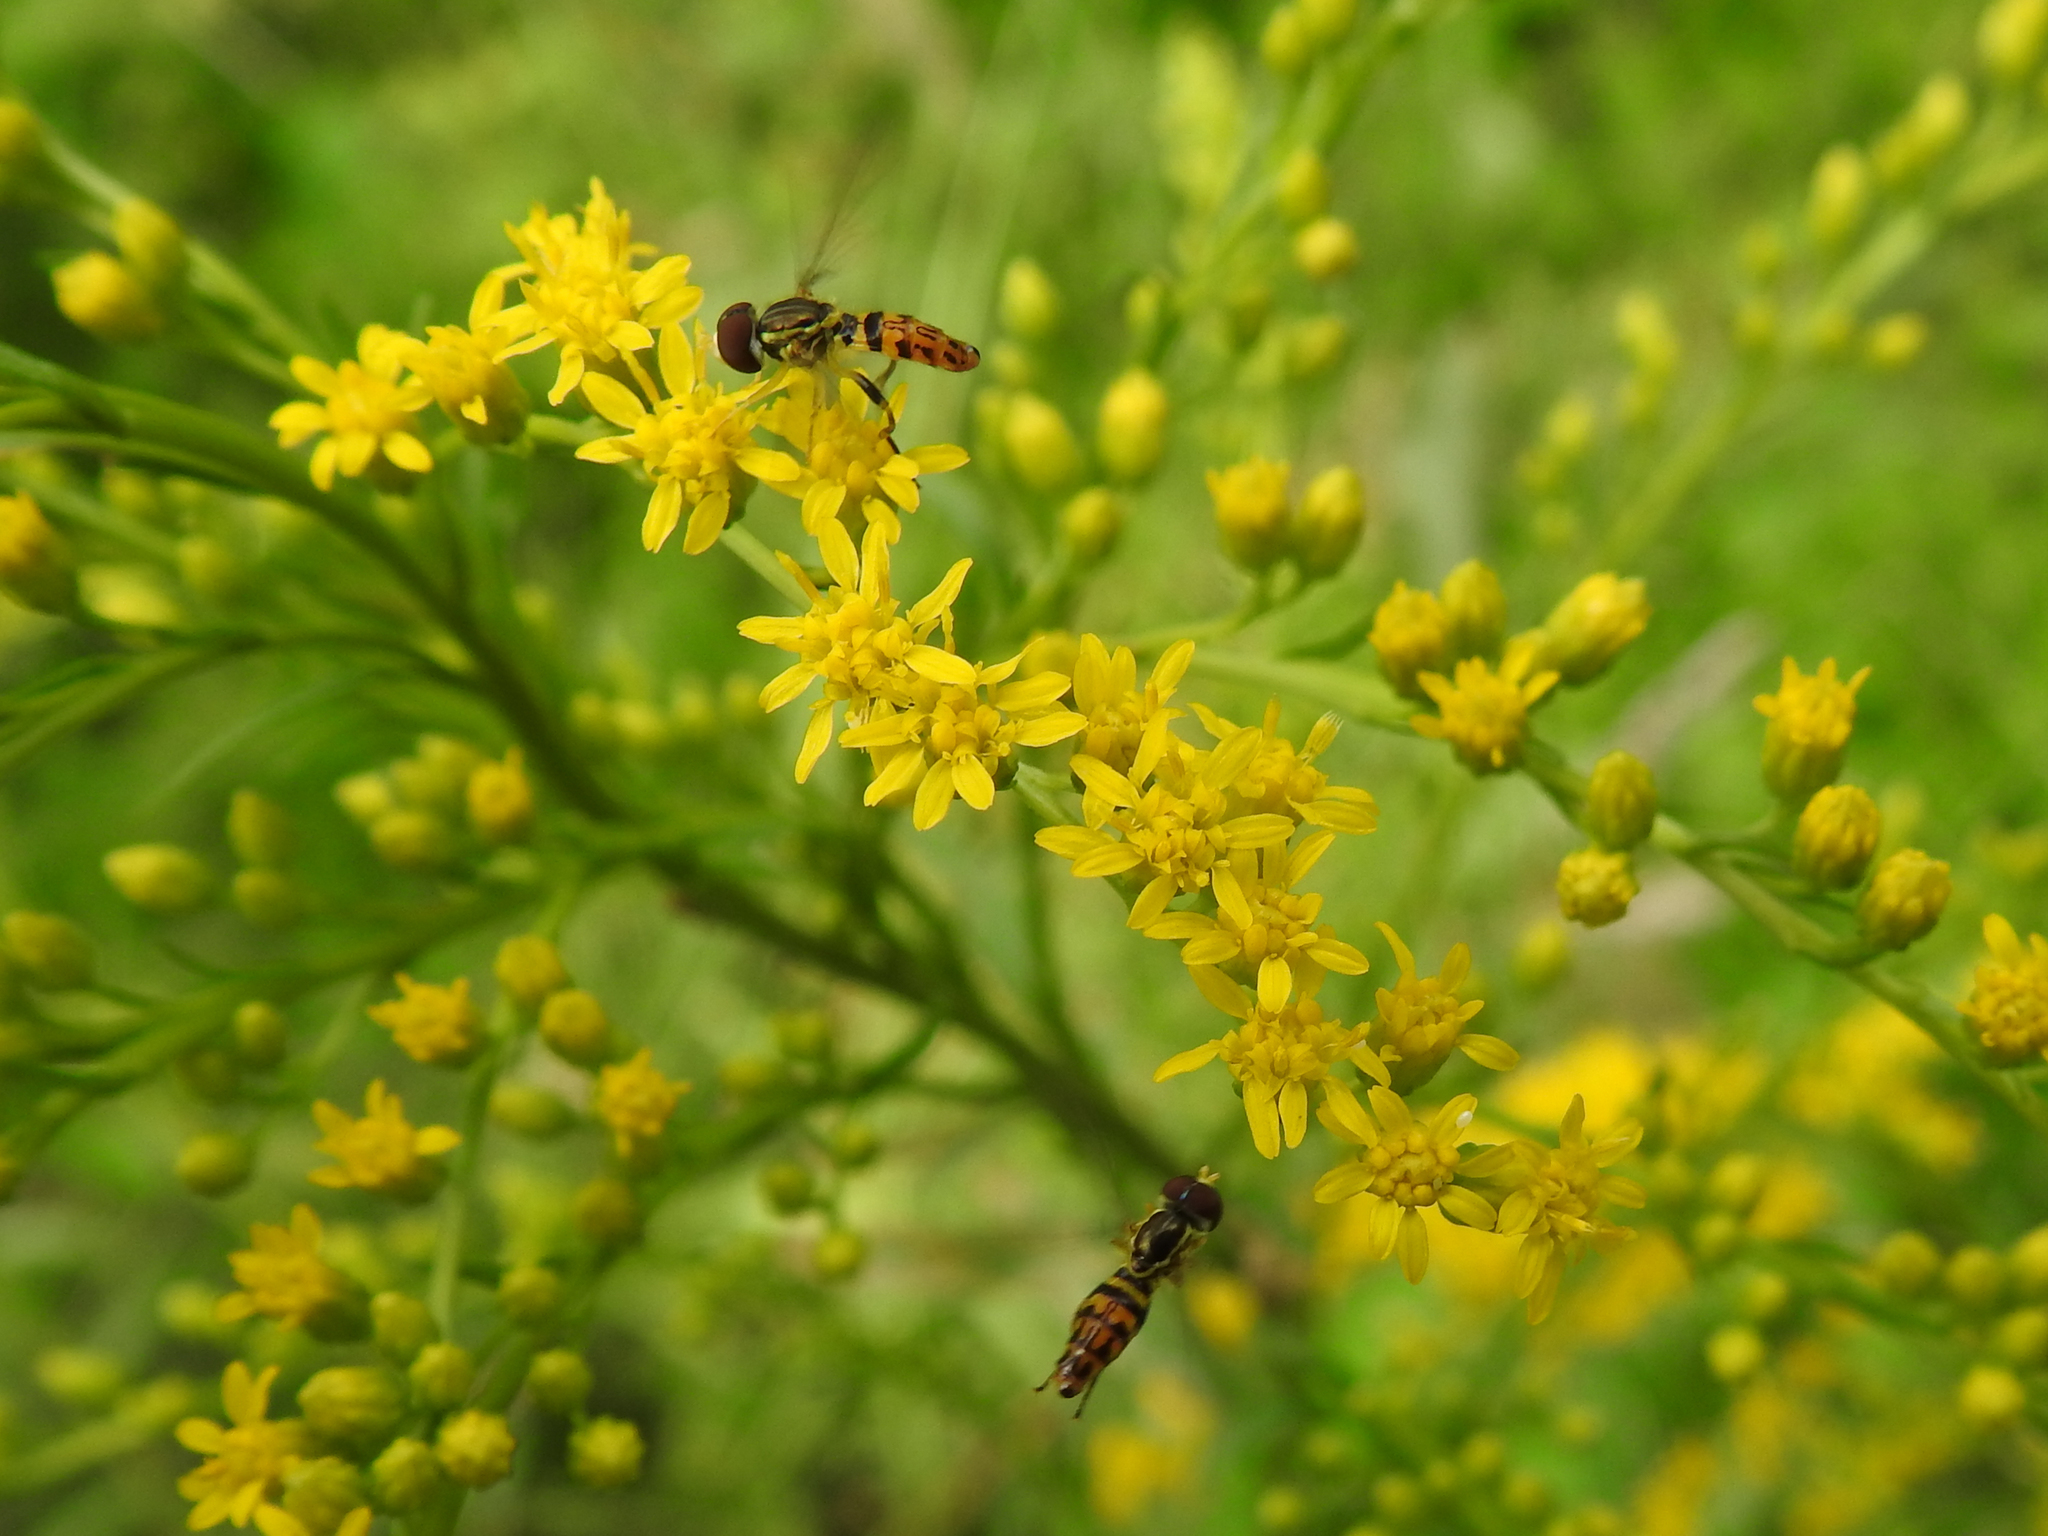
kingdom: Animalia
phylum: Arthropoda
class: Insecta
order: Diptera
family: Syrphidae
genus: Toxomerus
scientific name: Toxomerus geminatus
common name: Eastern calligrapher
